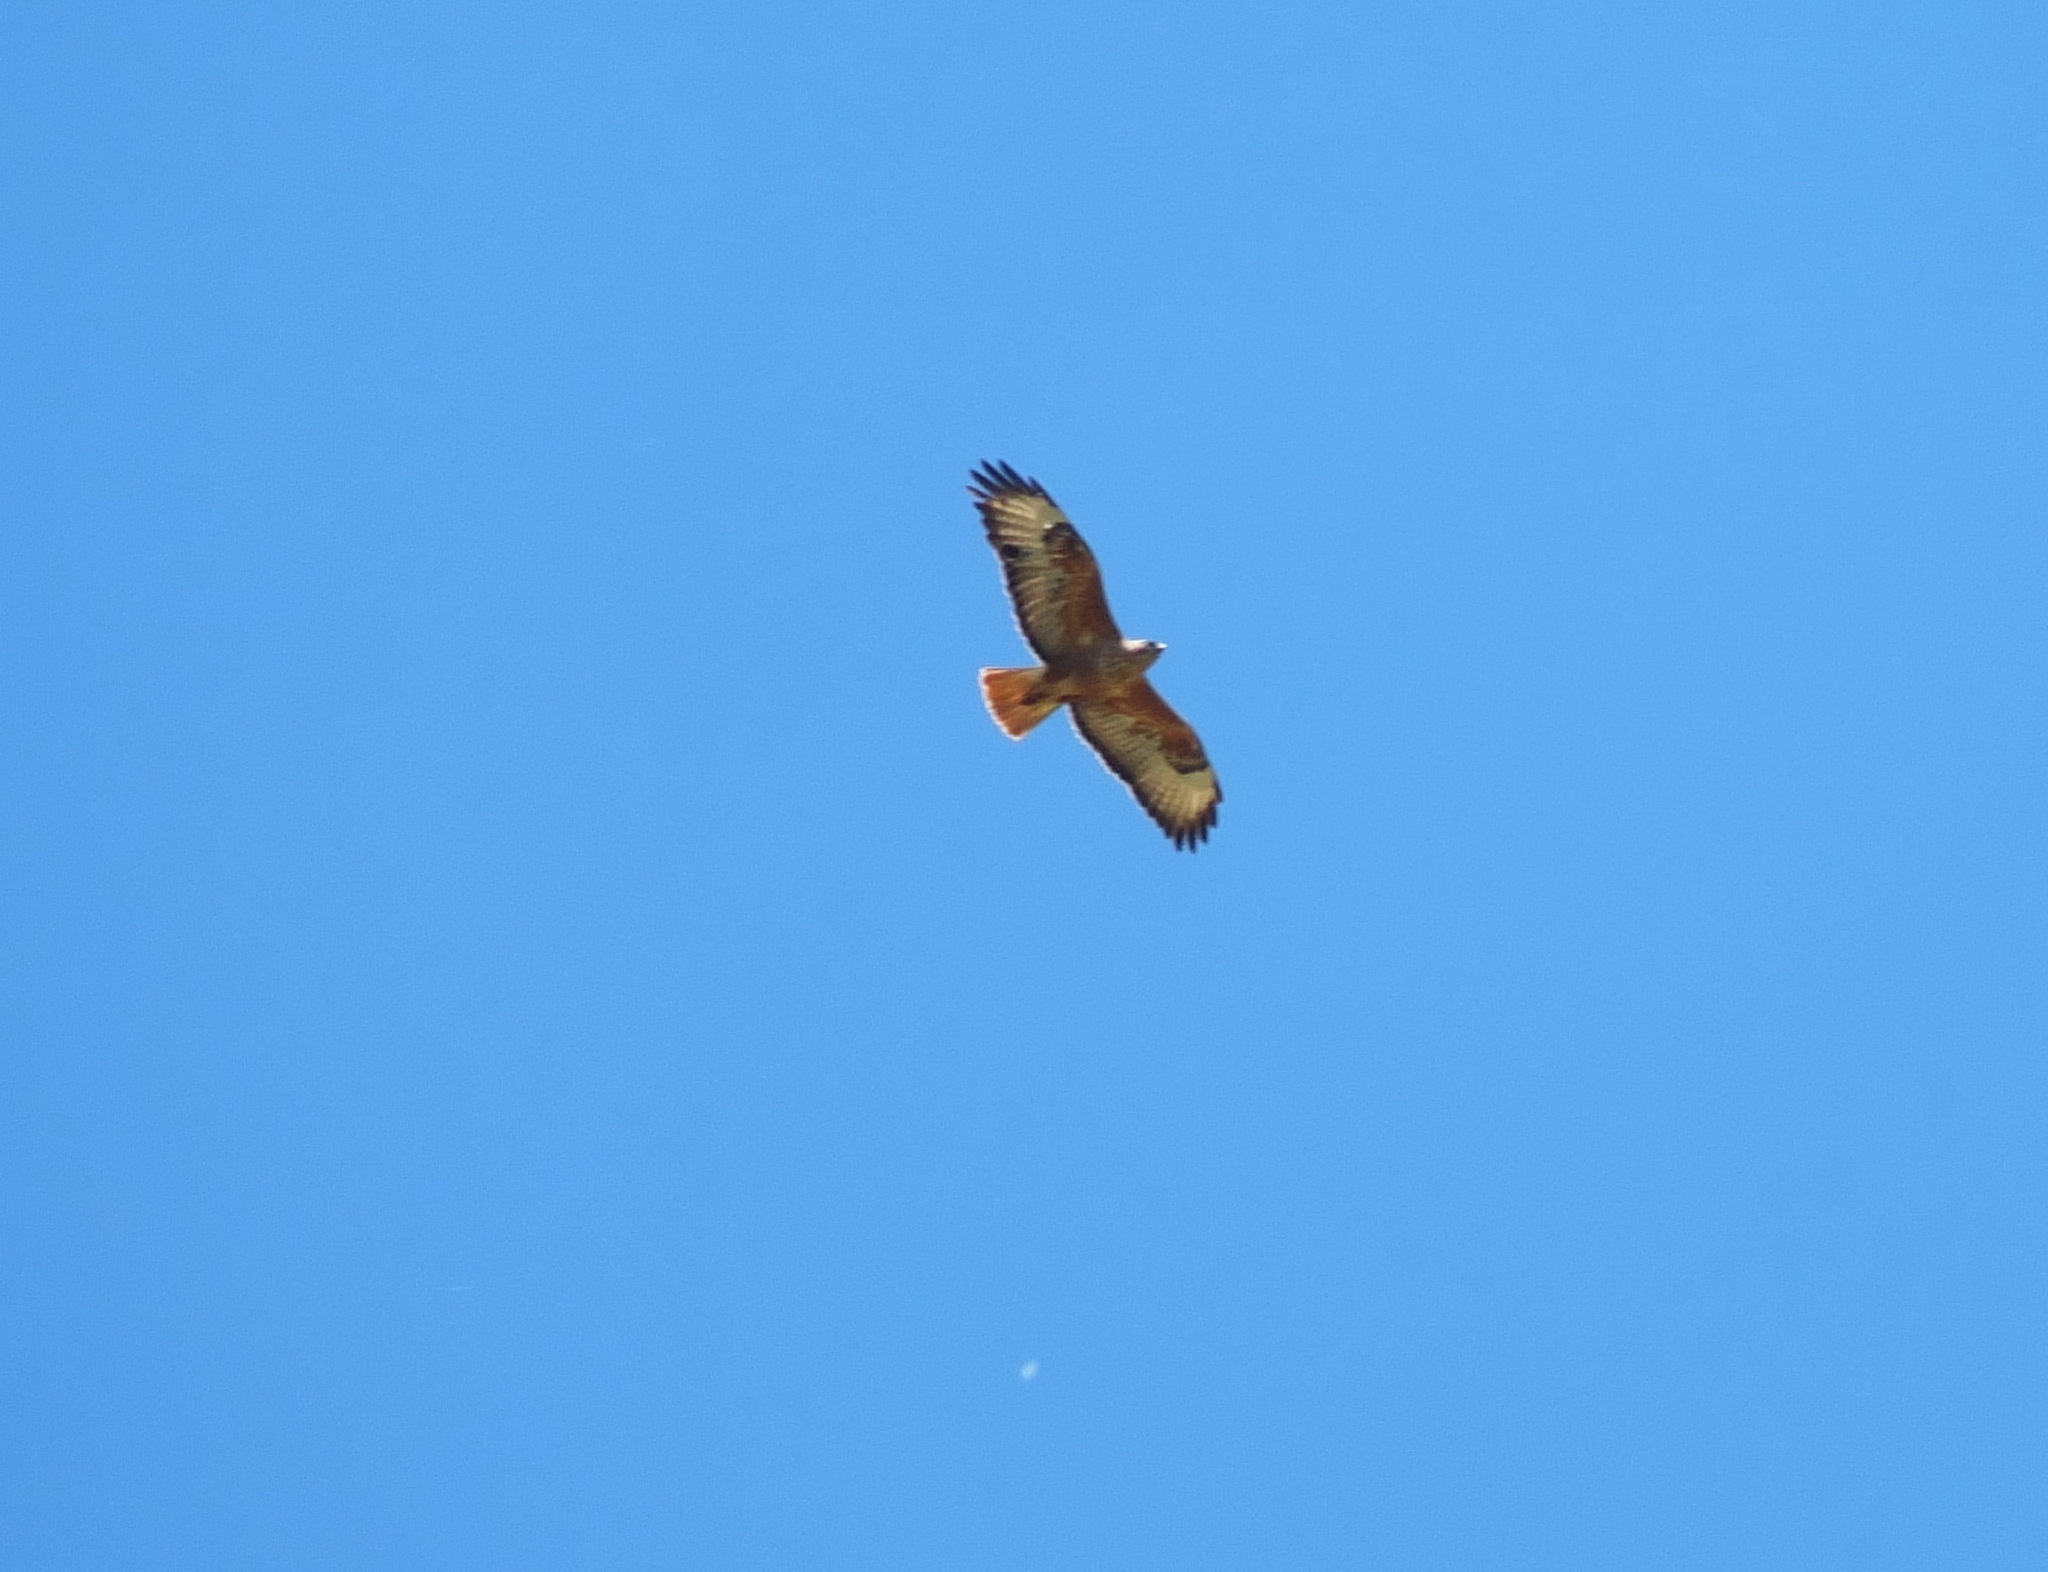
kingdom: Animalia
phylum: Chordata
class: Aves
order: Accipitriformes
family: Accipitridae
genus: Buteo
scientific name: Buteo rufinus
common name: Long-legged buzzard
